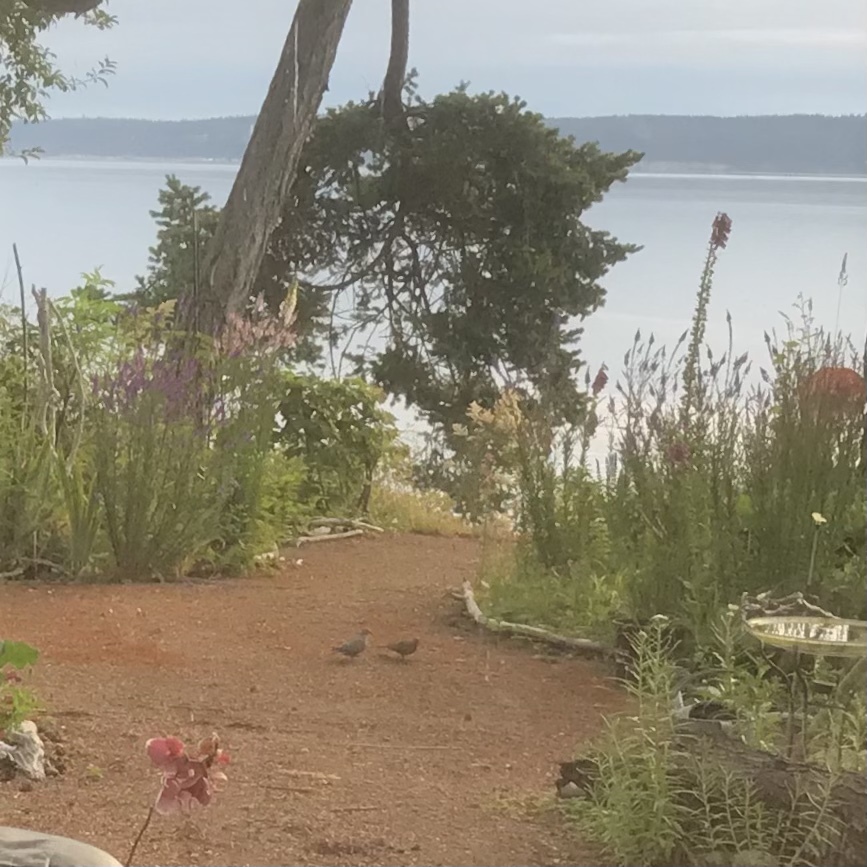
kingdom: Animalia
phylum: Chordata
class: Aves
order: Columbiformes
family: Columbidae
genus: Zenaida
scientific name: Zenaida macroura
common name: Mourning dove
